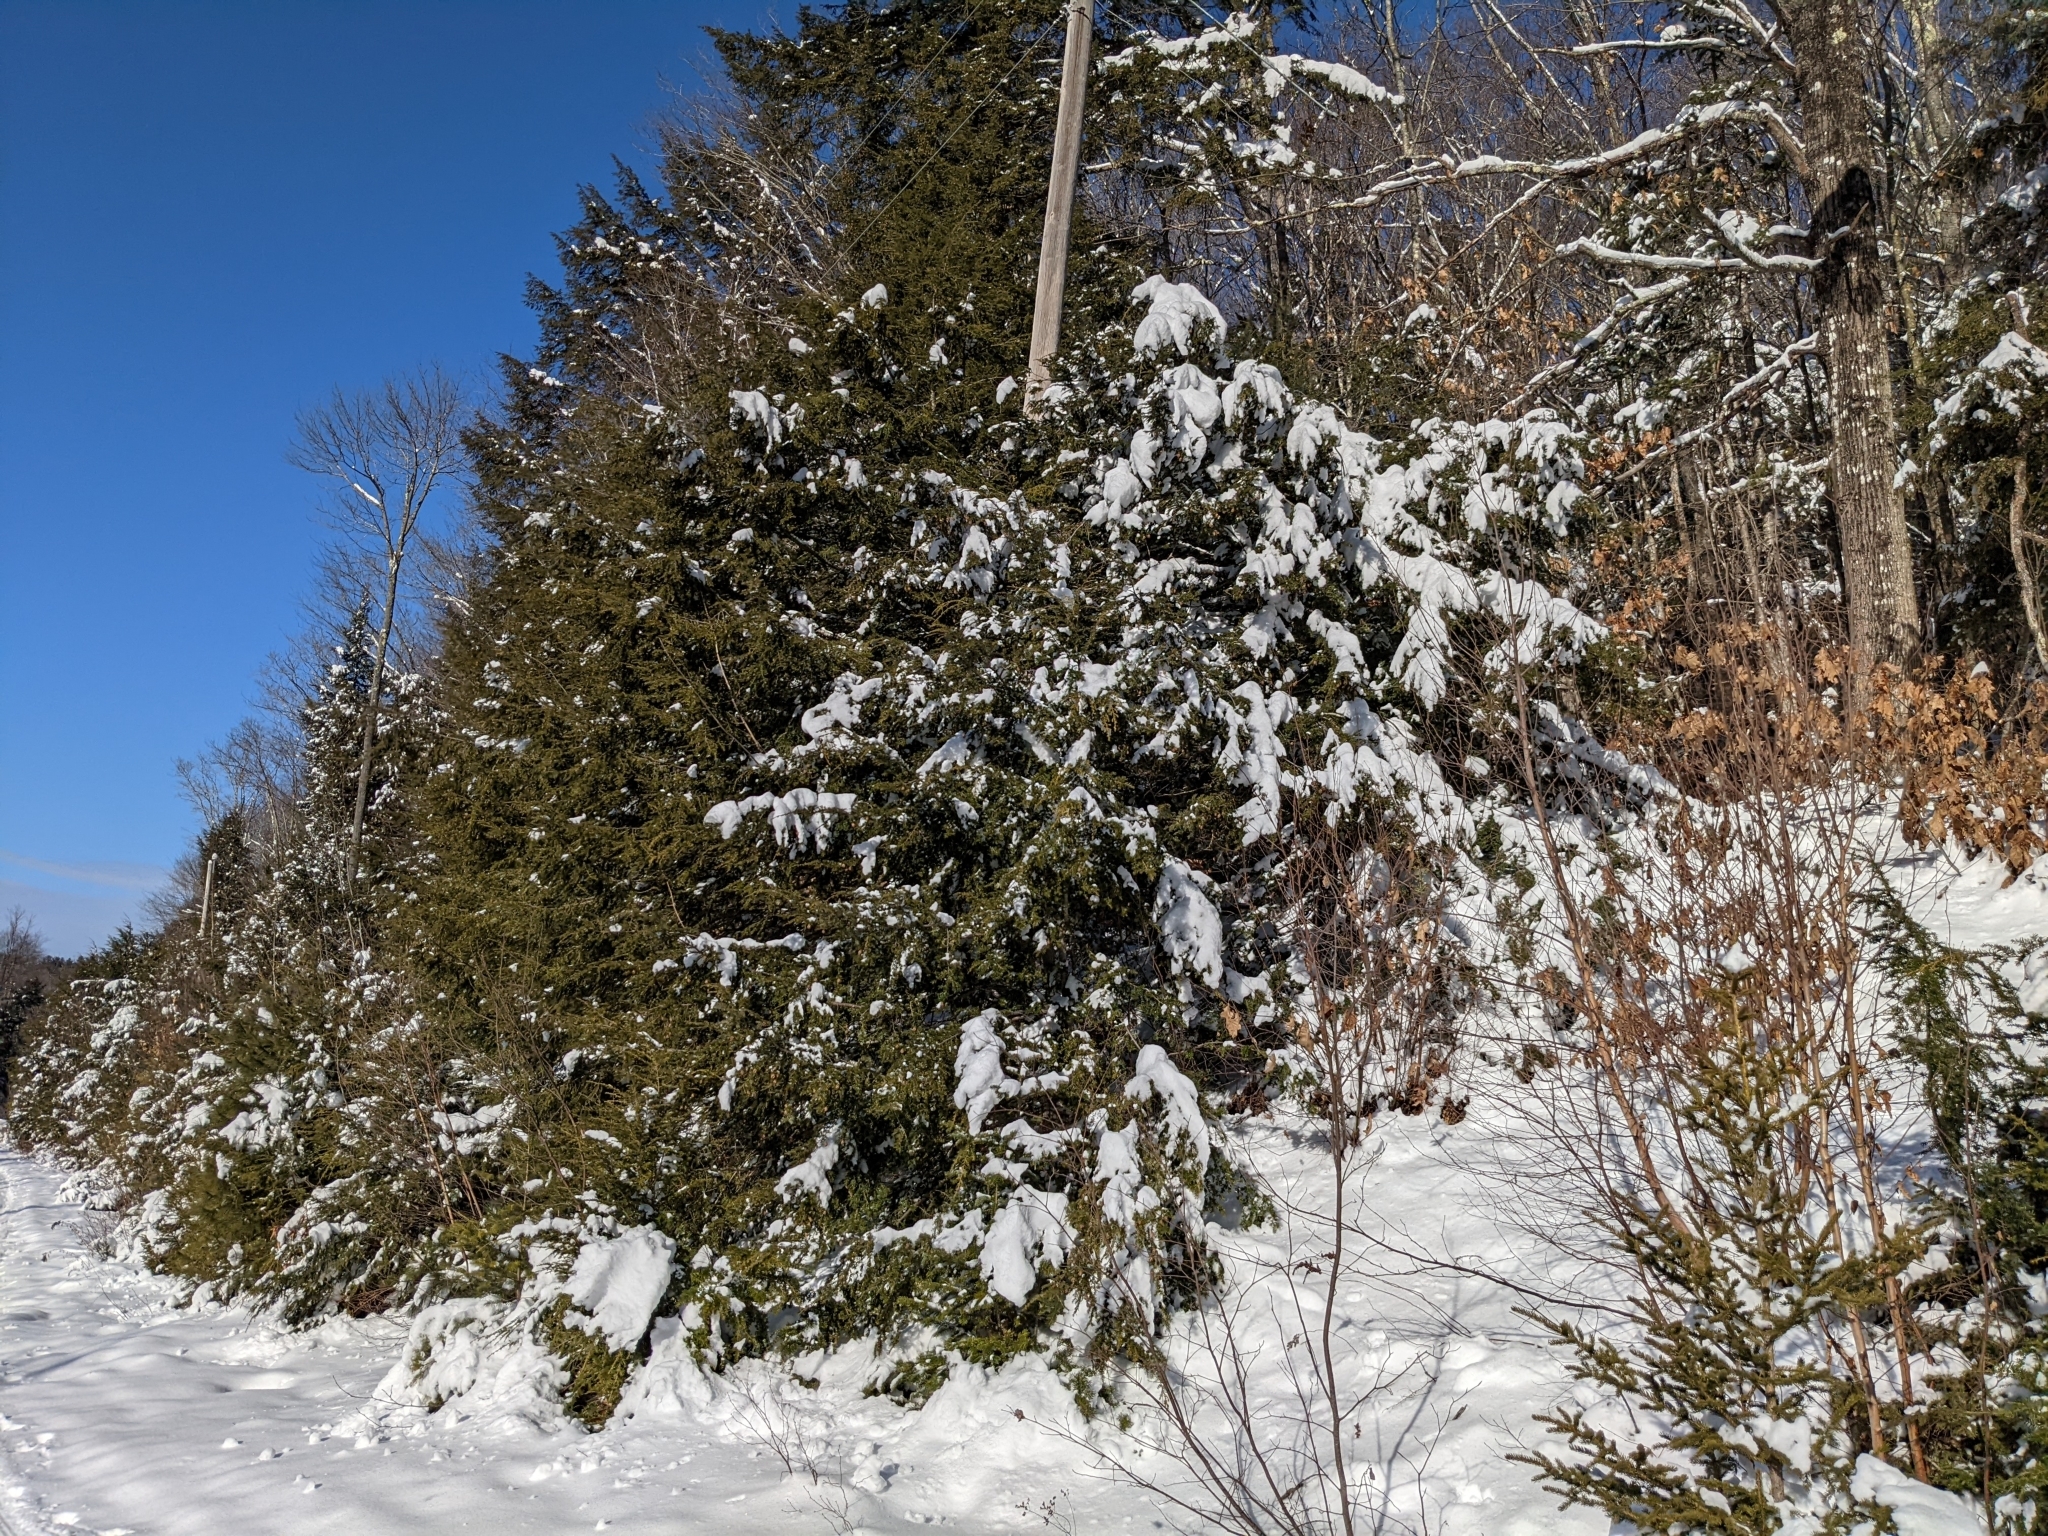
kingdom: Plantae
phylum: Tracheophyta
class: Pinopsida
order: Pinales
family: Pinaceae
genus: Tsuga
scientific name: Tsuga canadensis
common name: Eastern hemlock
